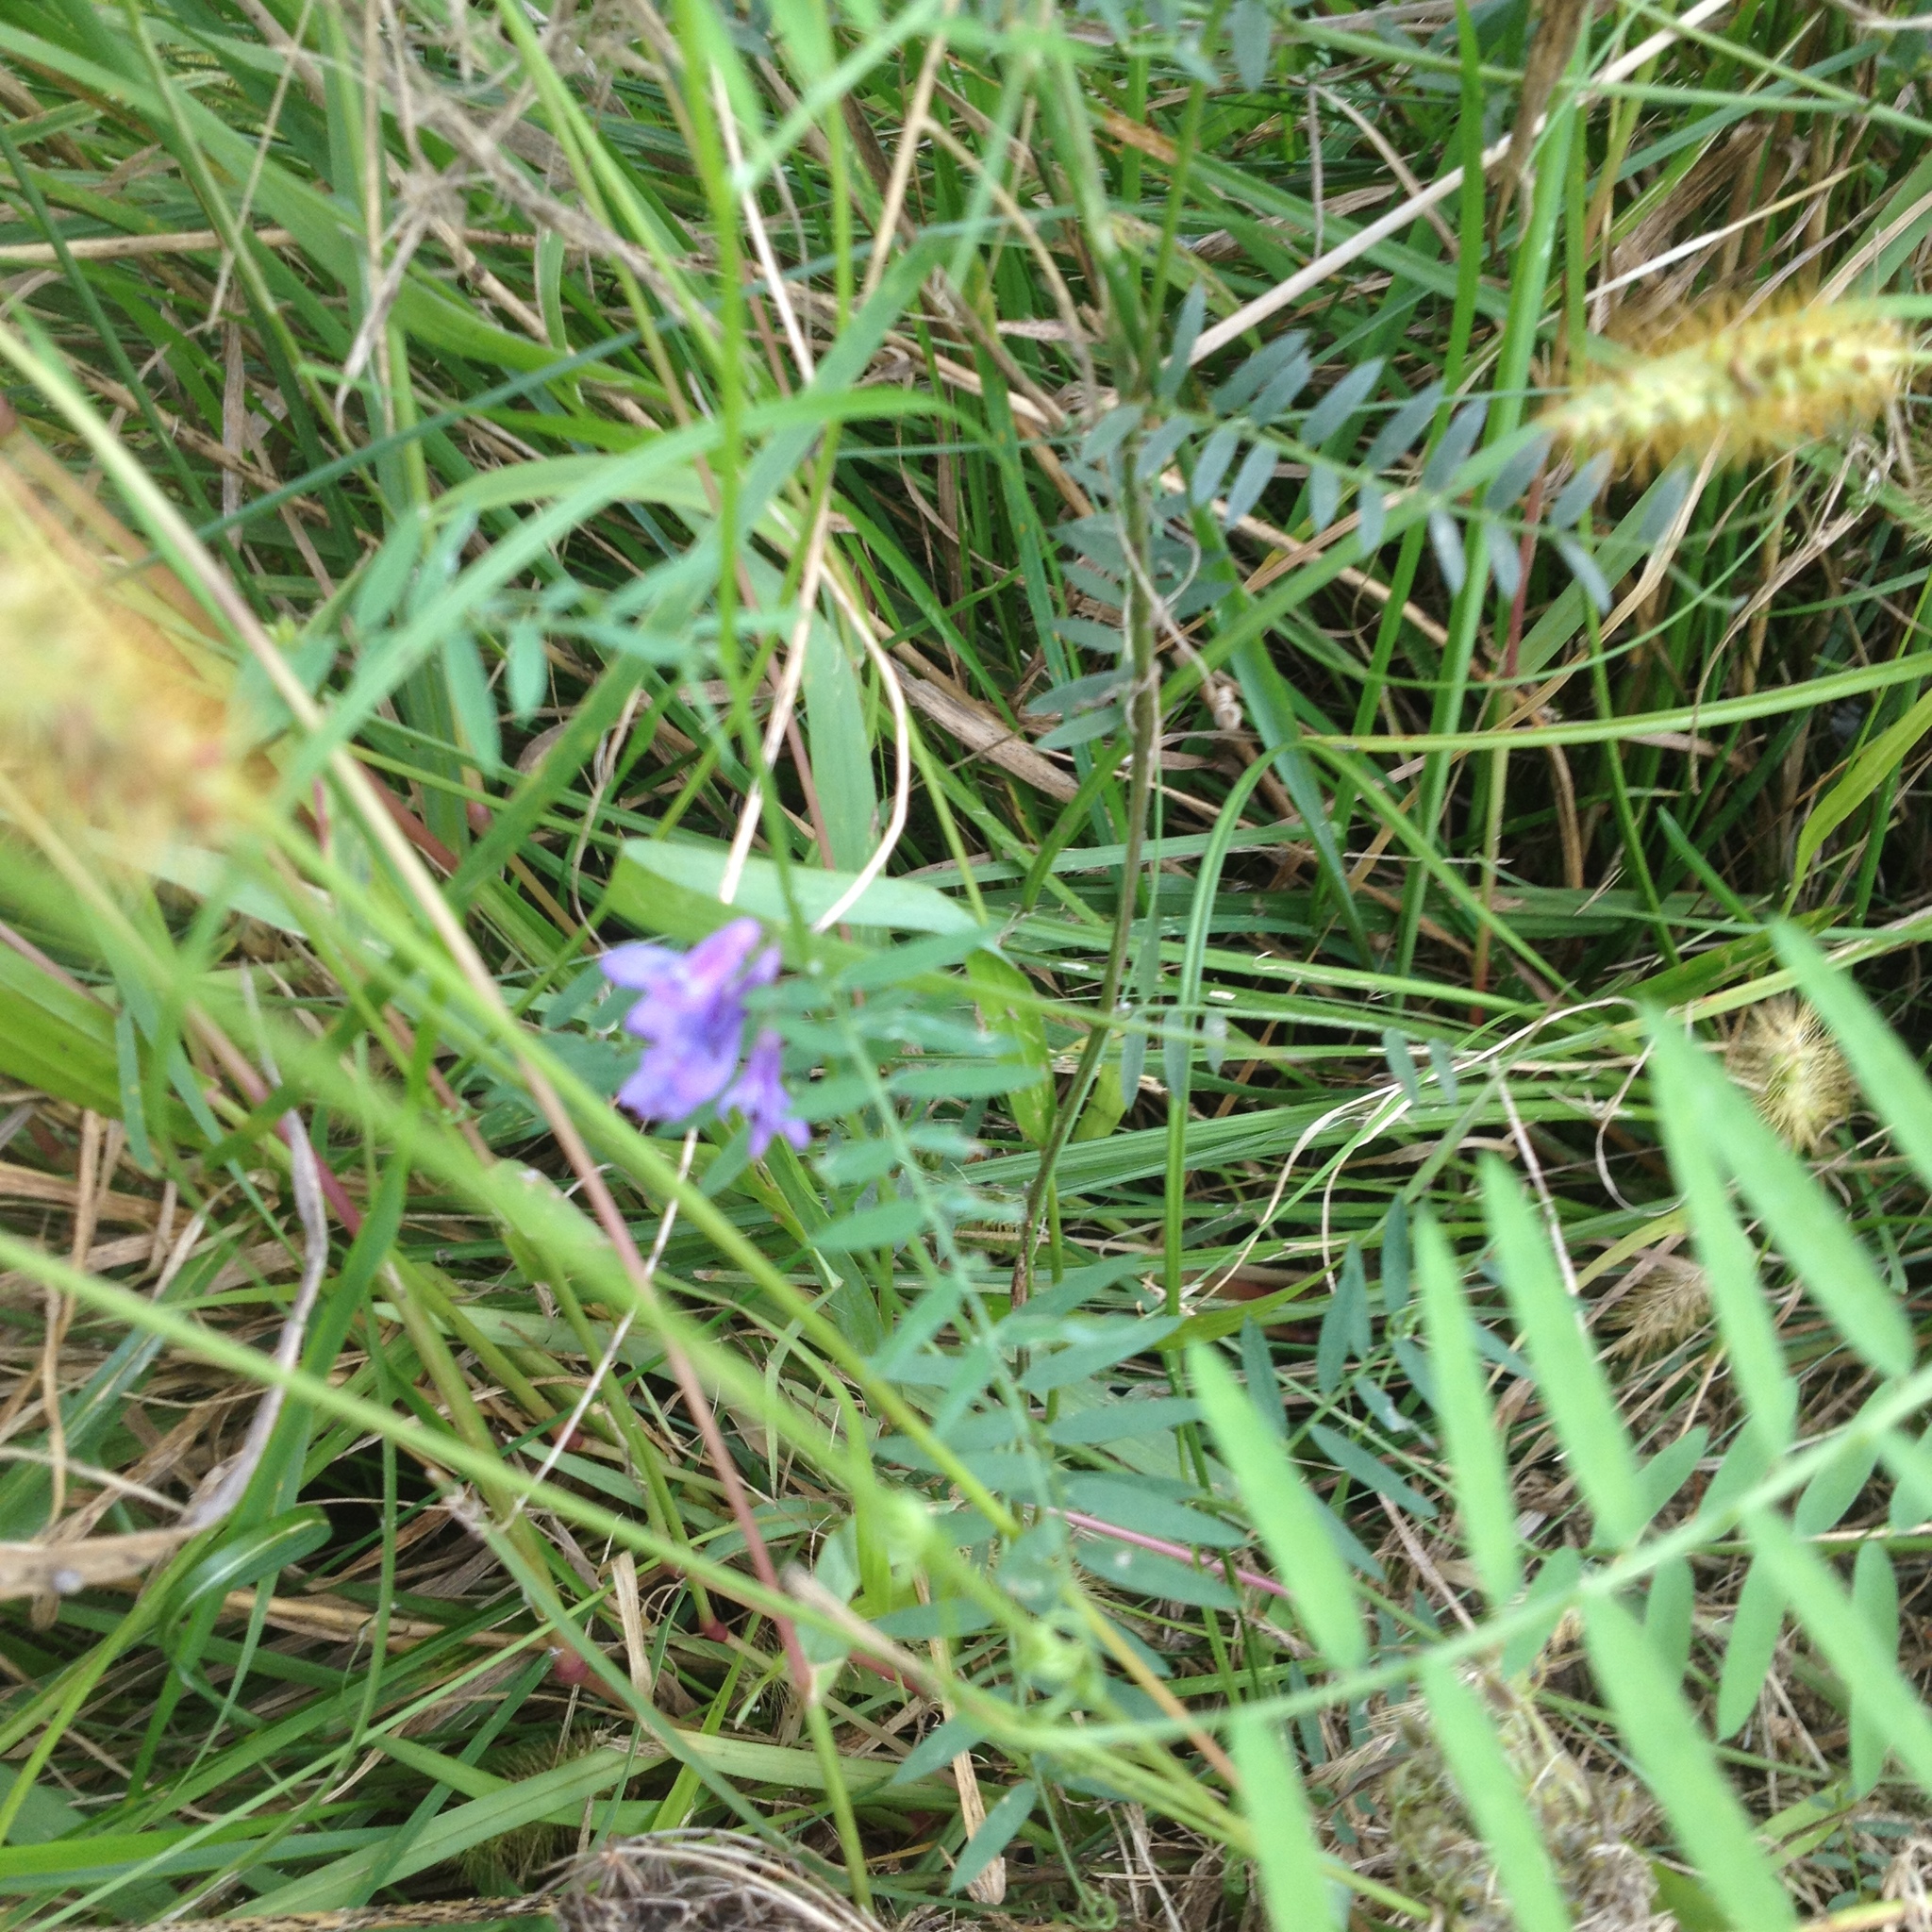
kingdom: Plantae
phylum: Tracheophyta
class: Magnoliopsida
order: Fabales
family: Fabaceae
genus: Vicia
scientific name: Vicia cracca
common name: Bird vetch
